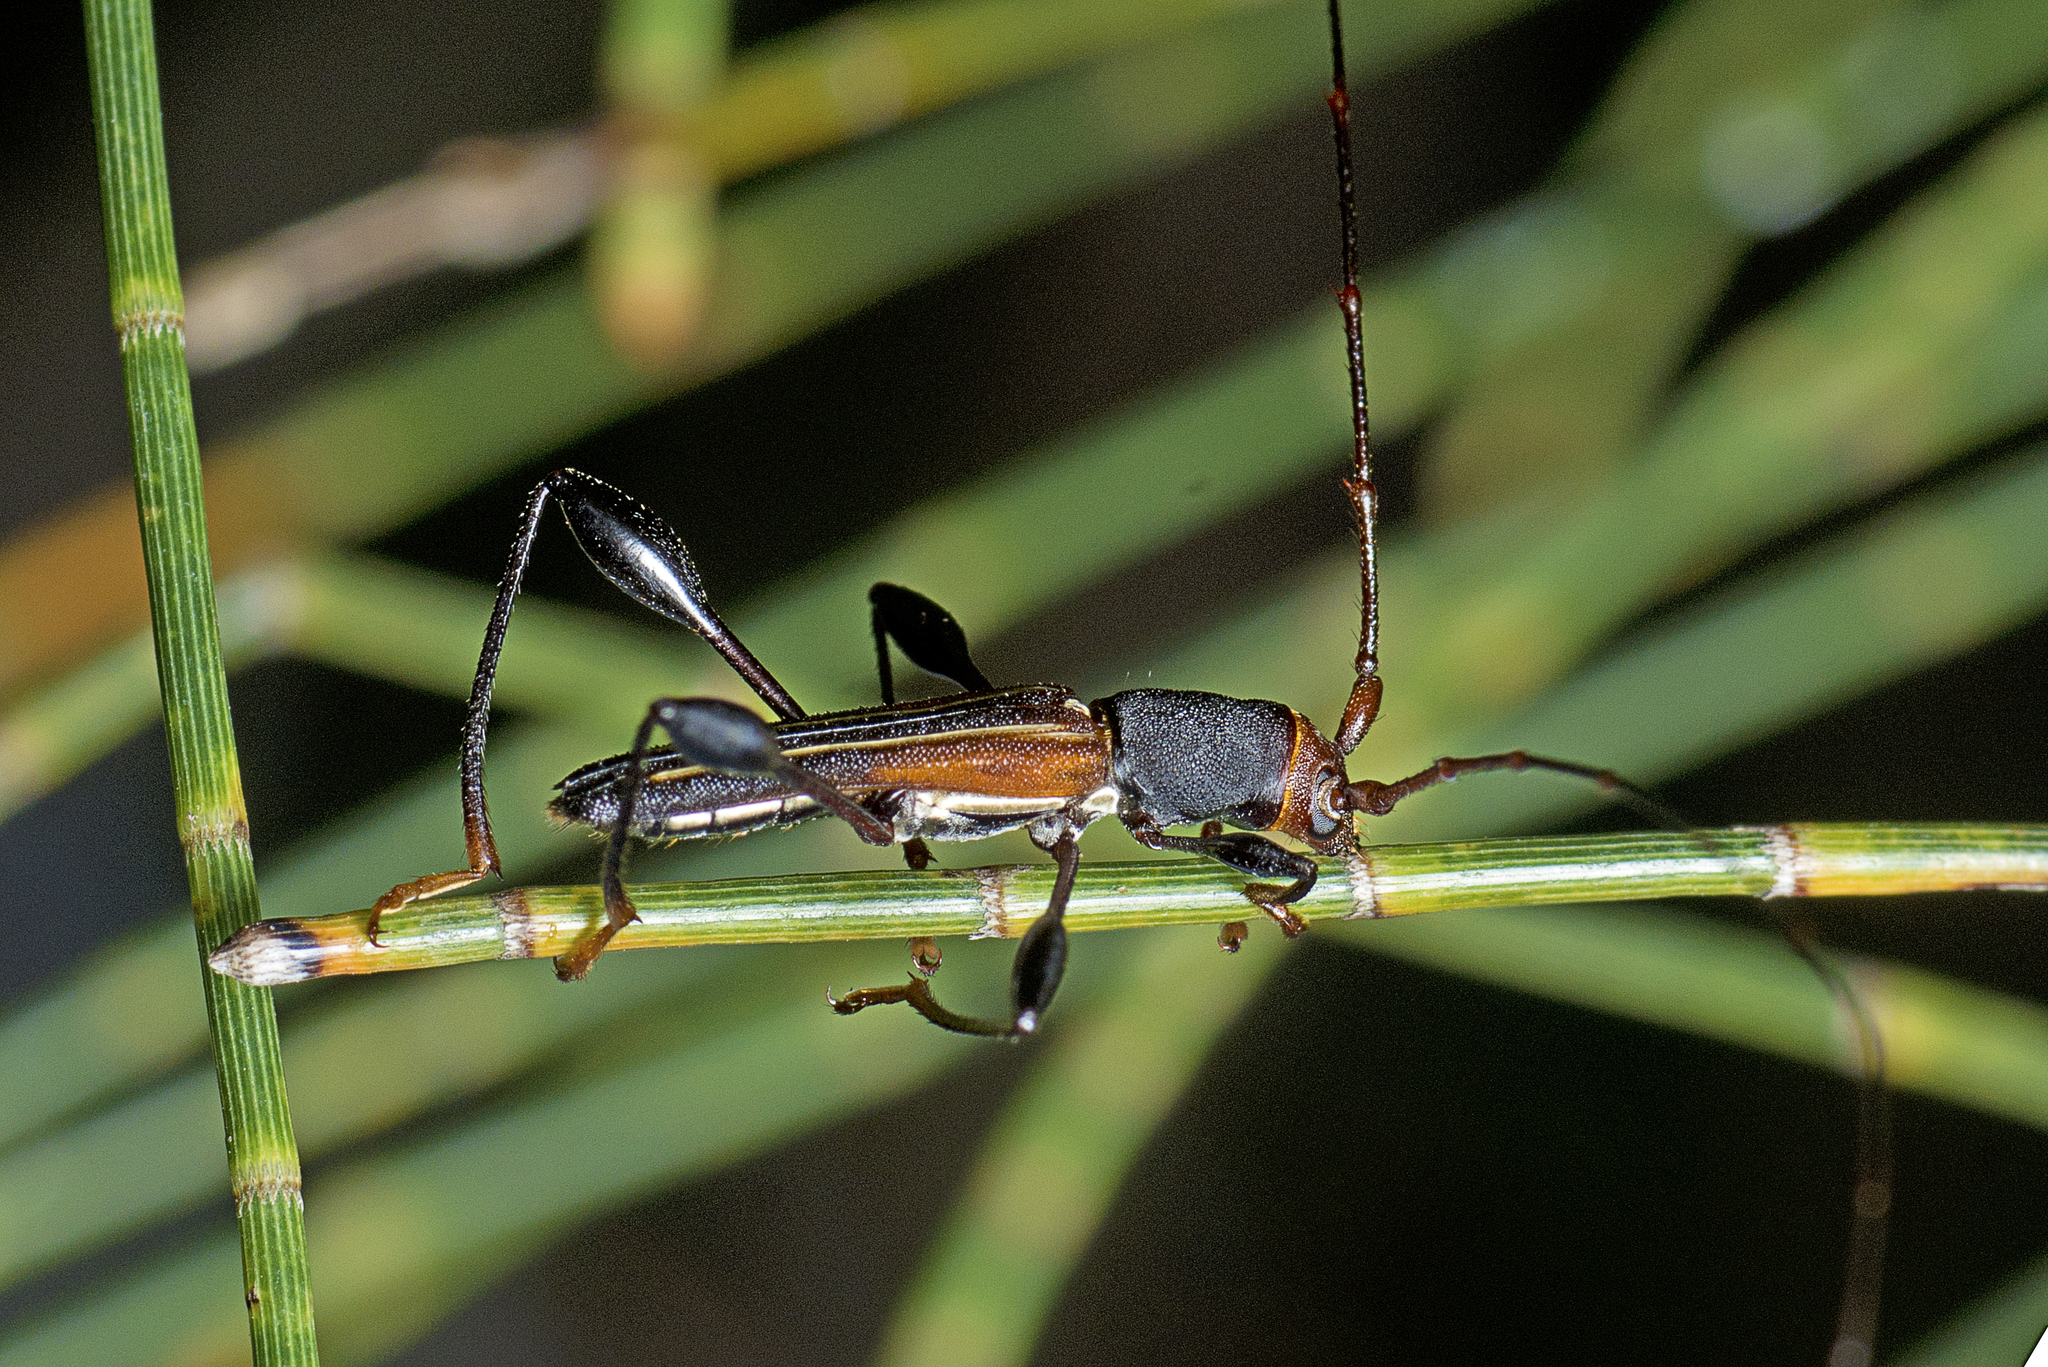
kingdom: Animalia
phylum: Arthropoda
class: Insecta
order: Coleoptera
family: Cerambycidae
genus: Amphirhoe
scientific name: Amphirhoe sloanei
